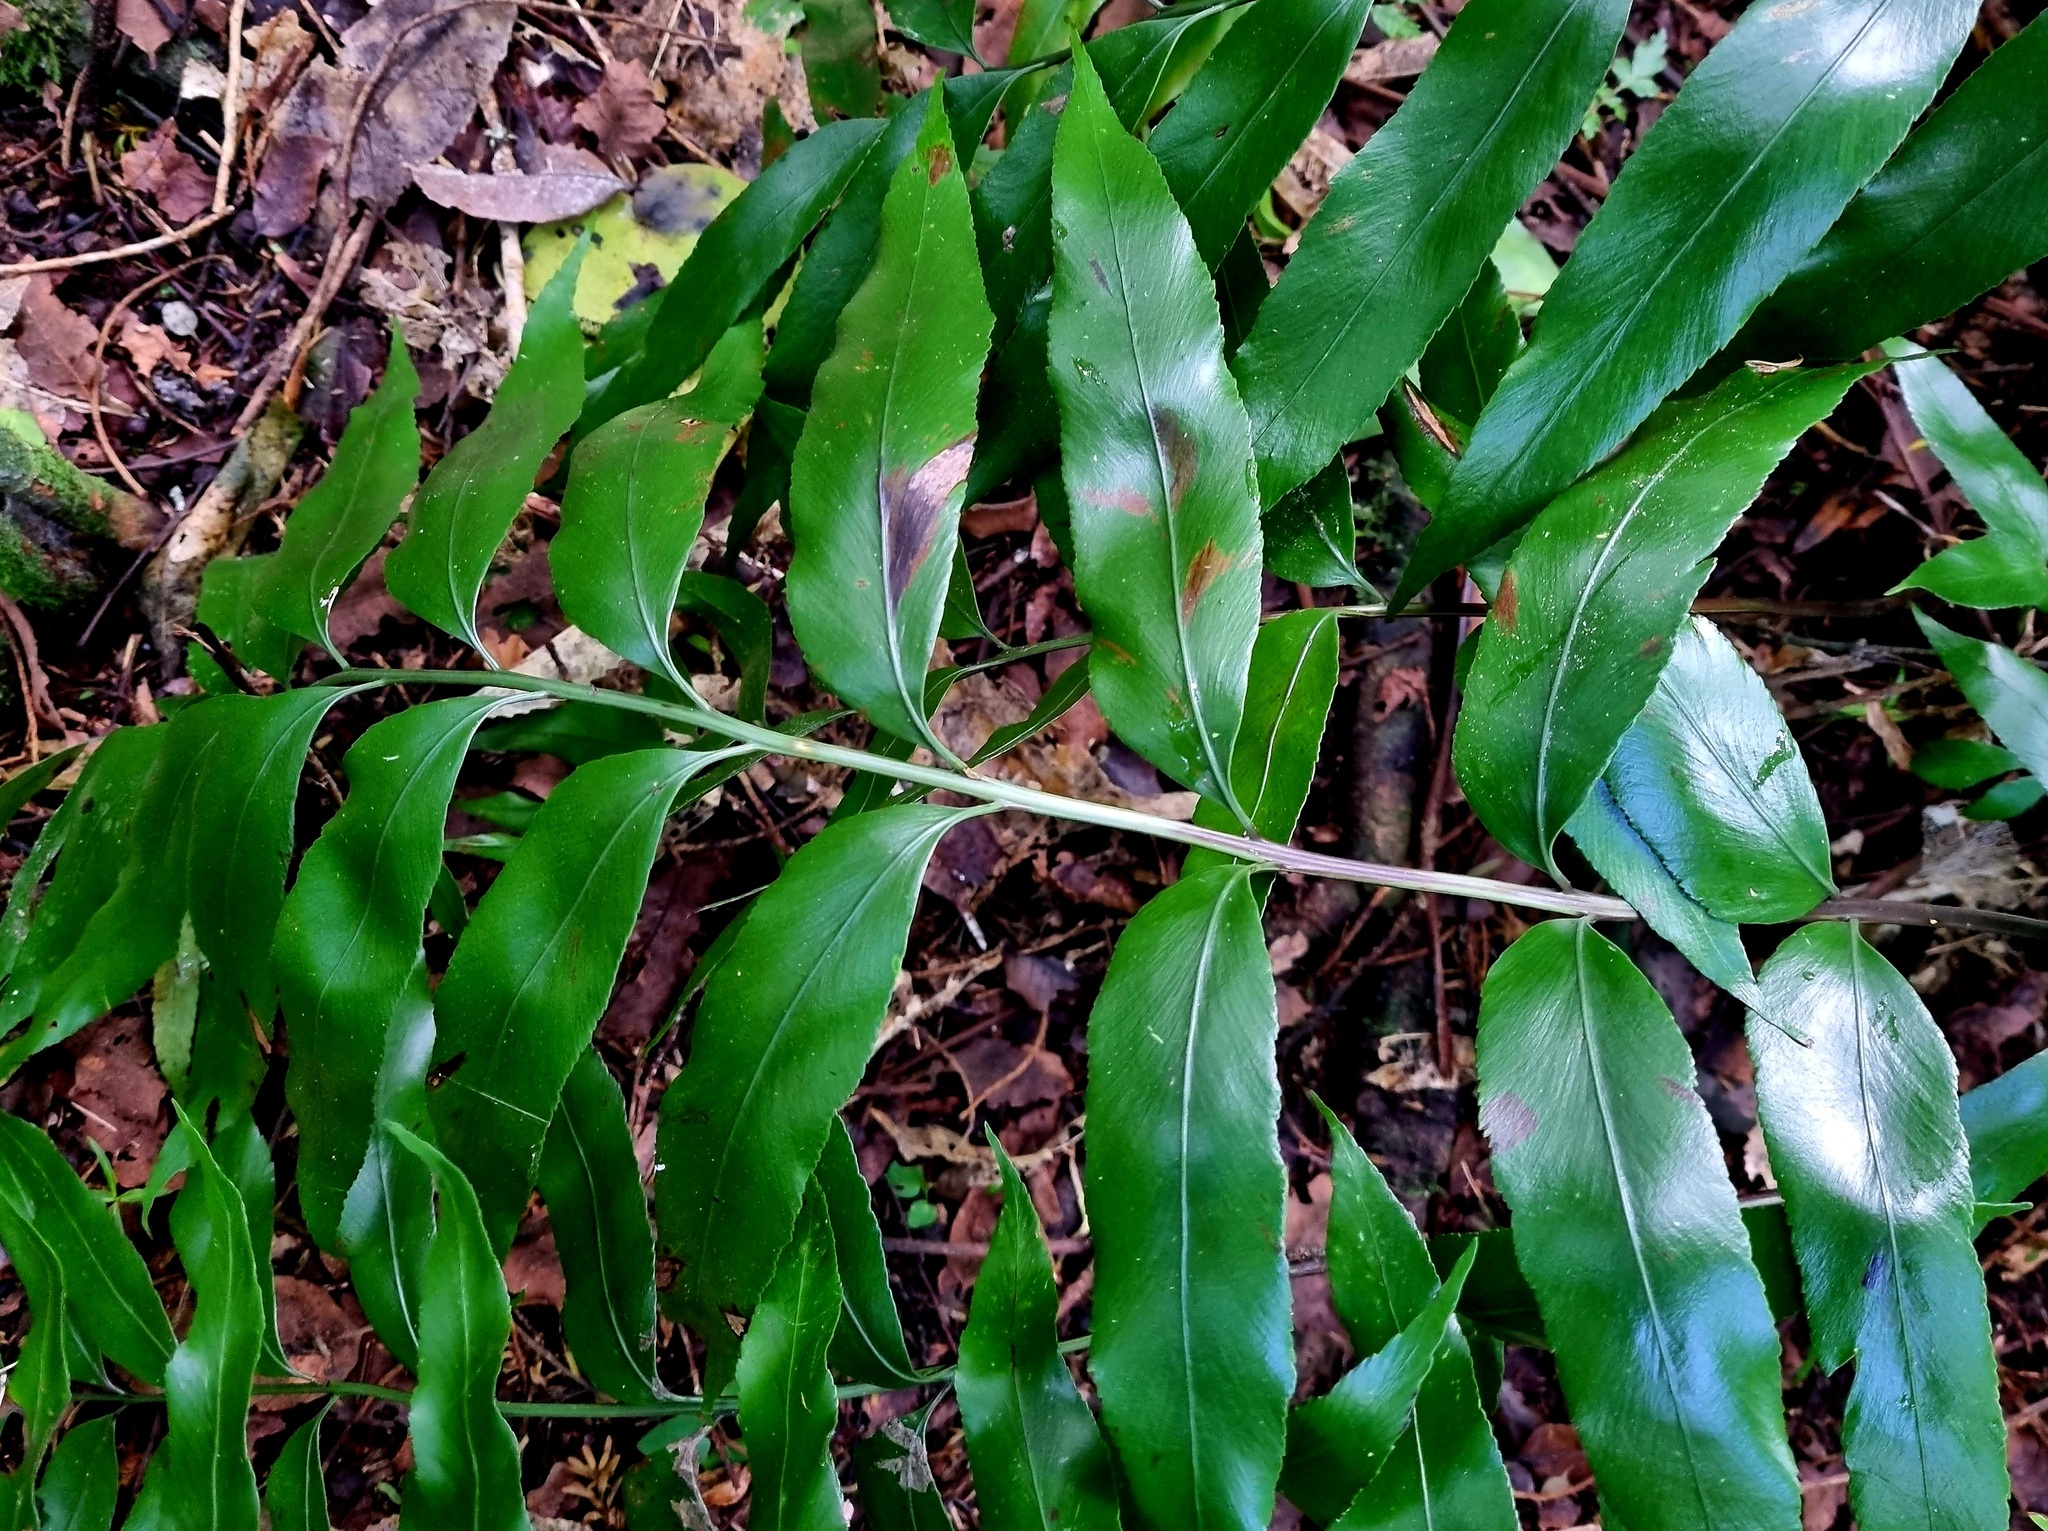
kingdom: Plantae
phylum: Tracheophyta
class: Polypodiopsida
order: Polypodiales
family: Aspleniaceae
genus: Asplenium
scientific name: Asplenium oblongifolium
